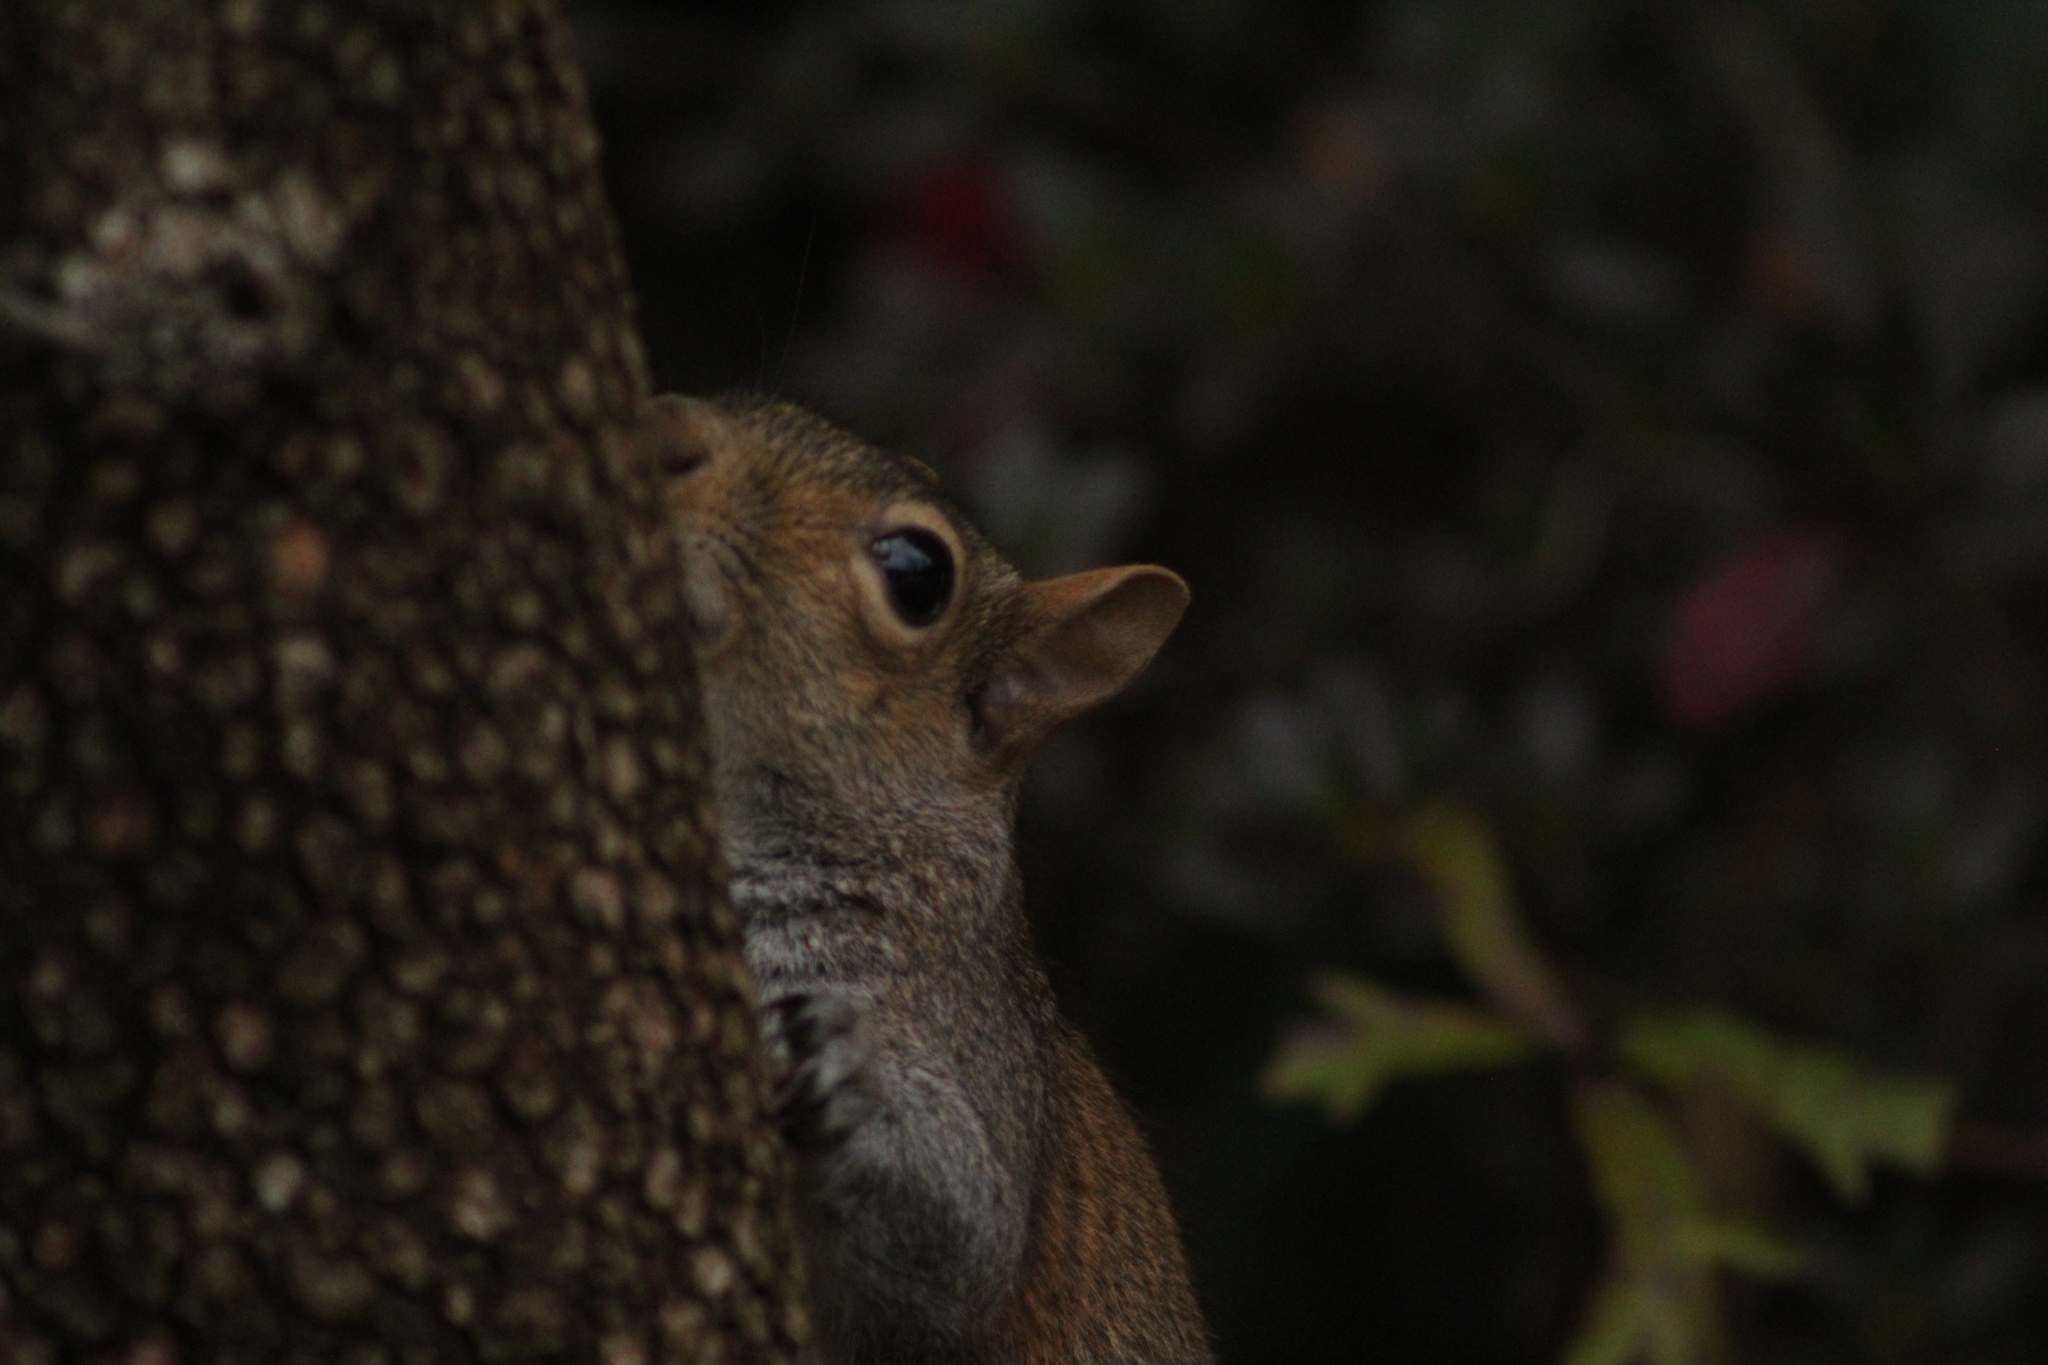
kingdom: Animalia
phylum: Chordata
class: Mammalia
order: Rodentia
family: Sciuridae
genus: Sciurus
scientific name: Sciurus carolinensis
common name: Eastern gray squirrel
